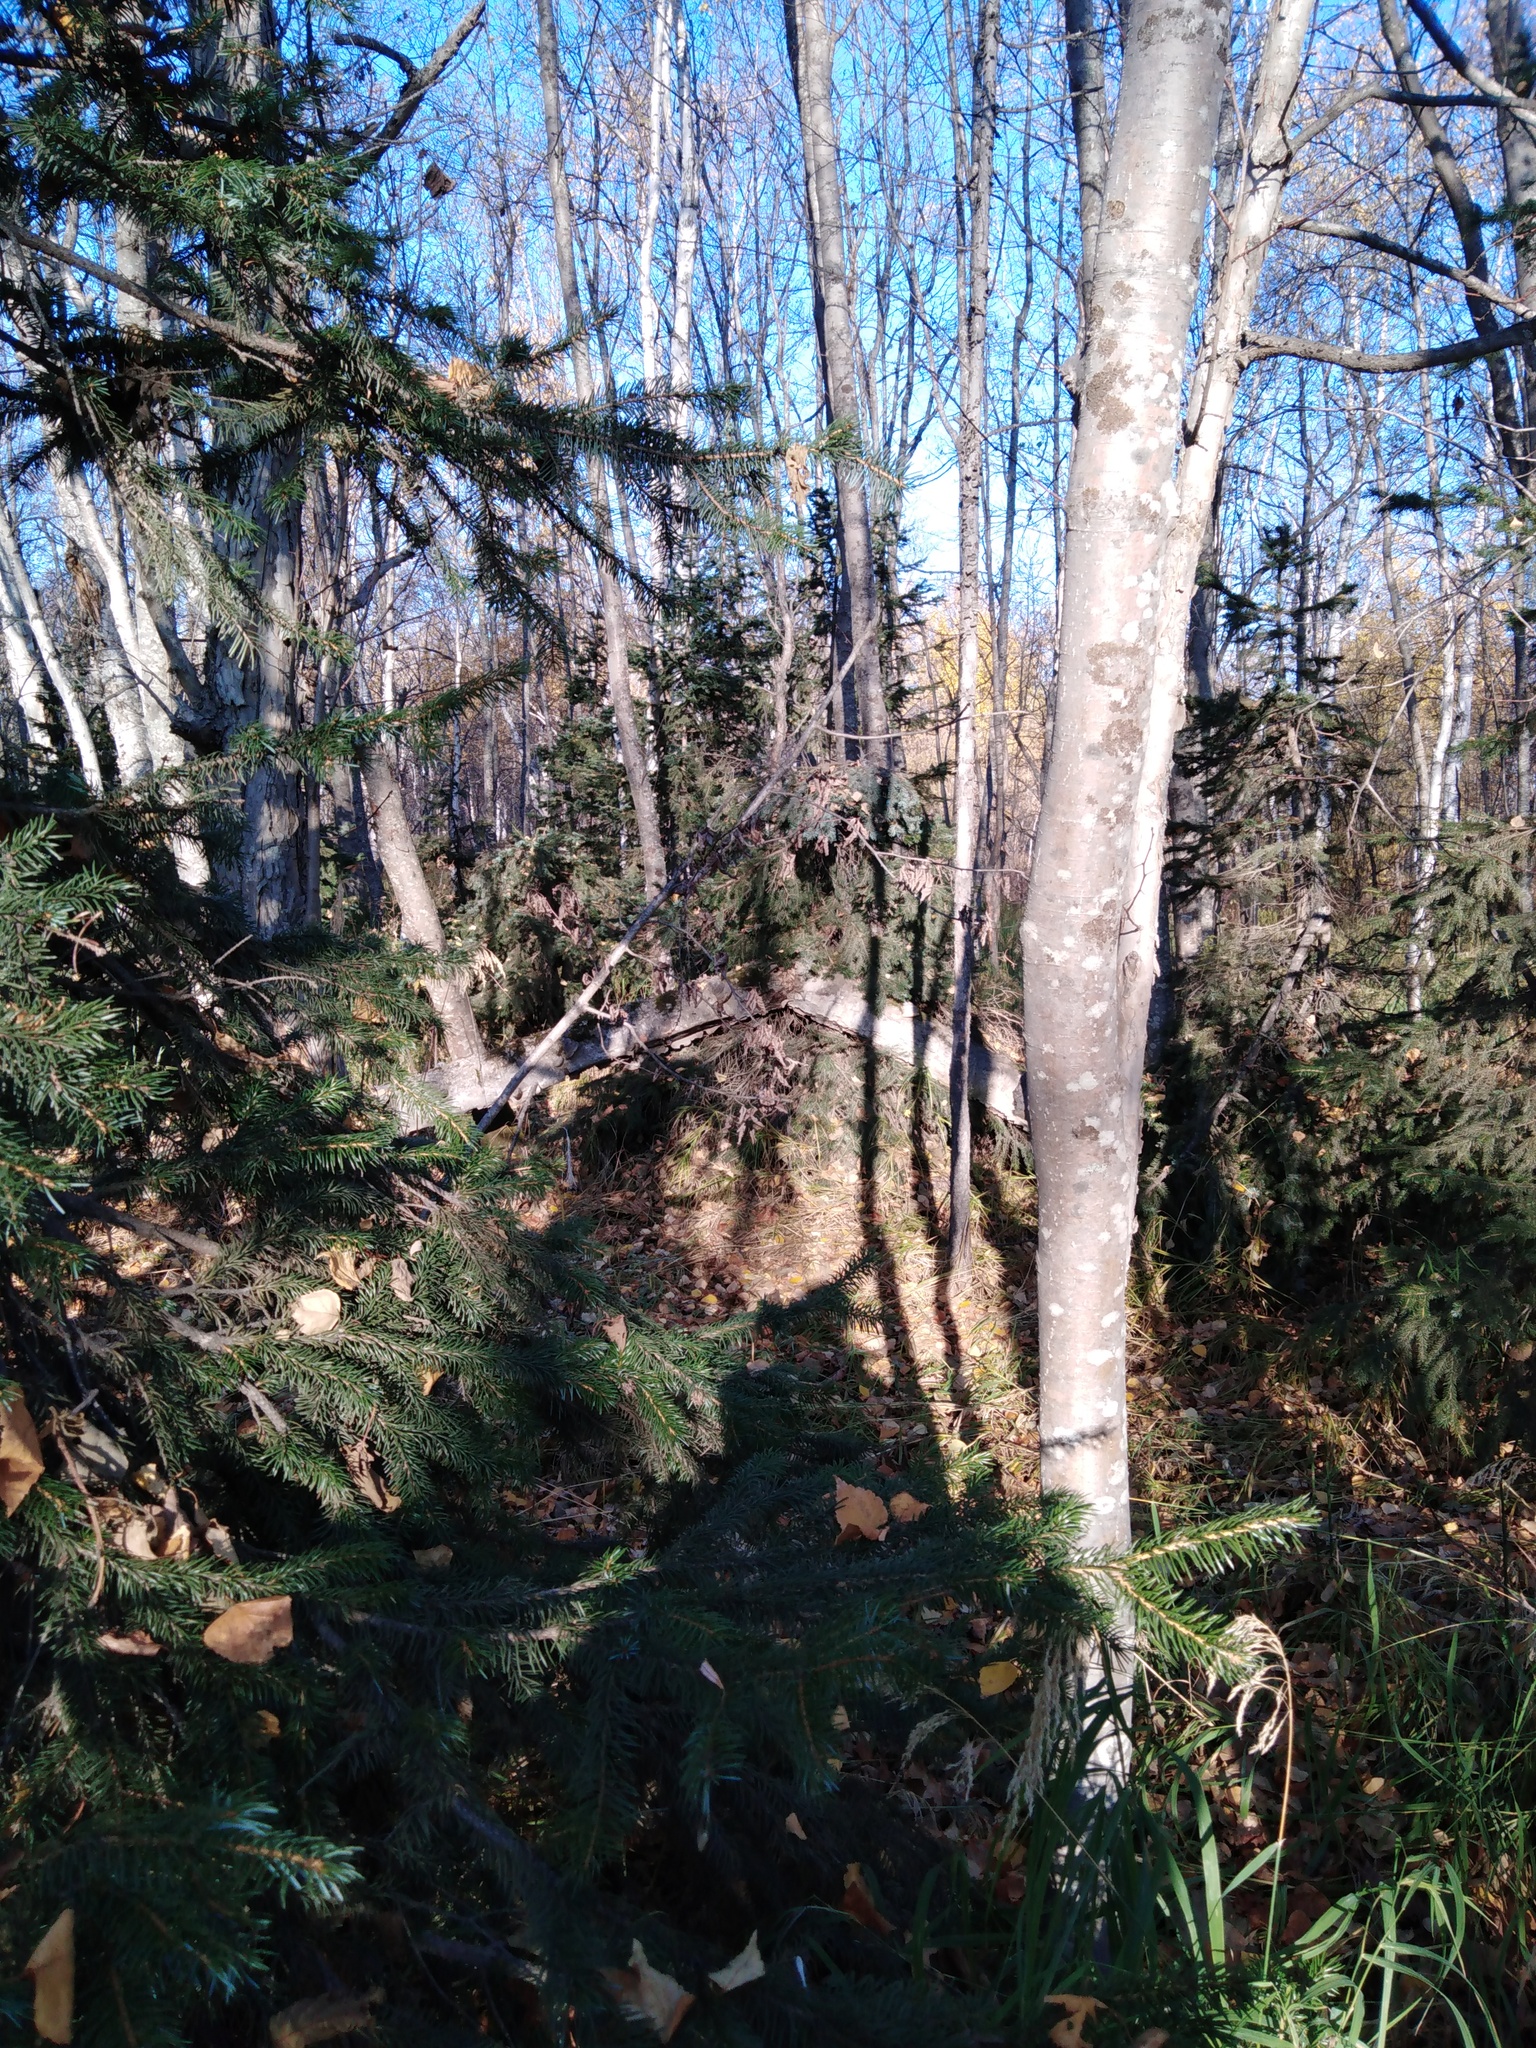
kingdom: Plantae
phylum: Tracheophyta
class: Pinopsida
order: Pinales
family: Pinaceae
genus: Picea
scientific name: Picea jezoensis
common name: Yeddo spruce
